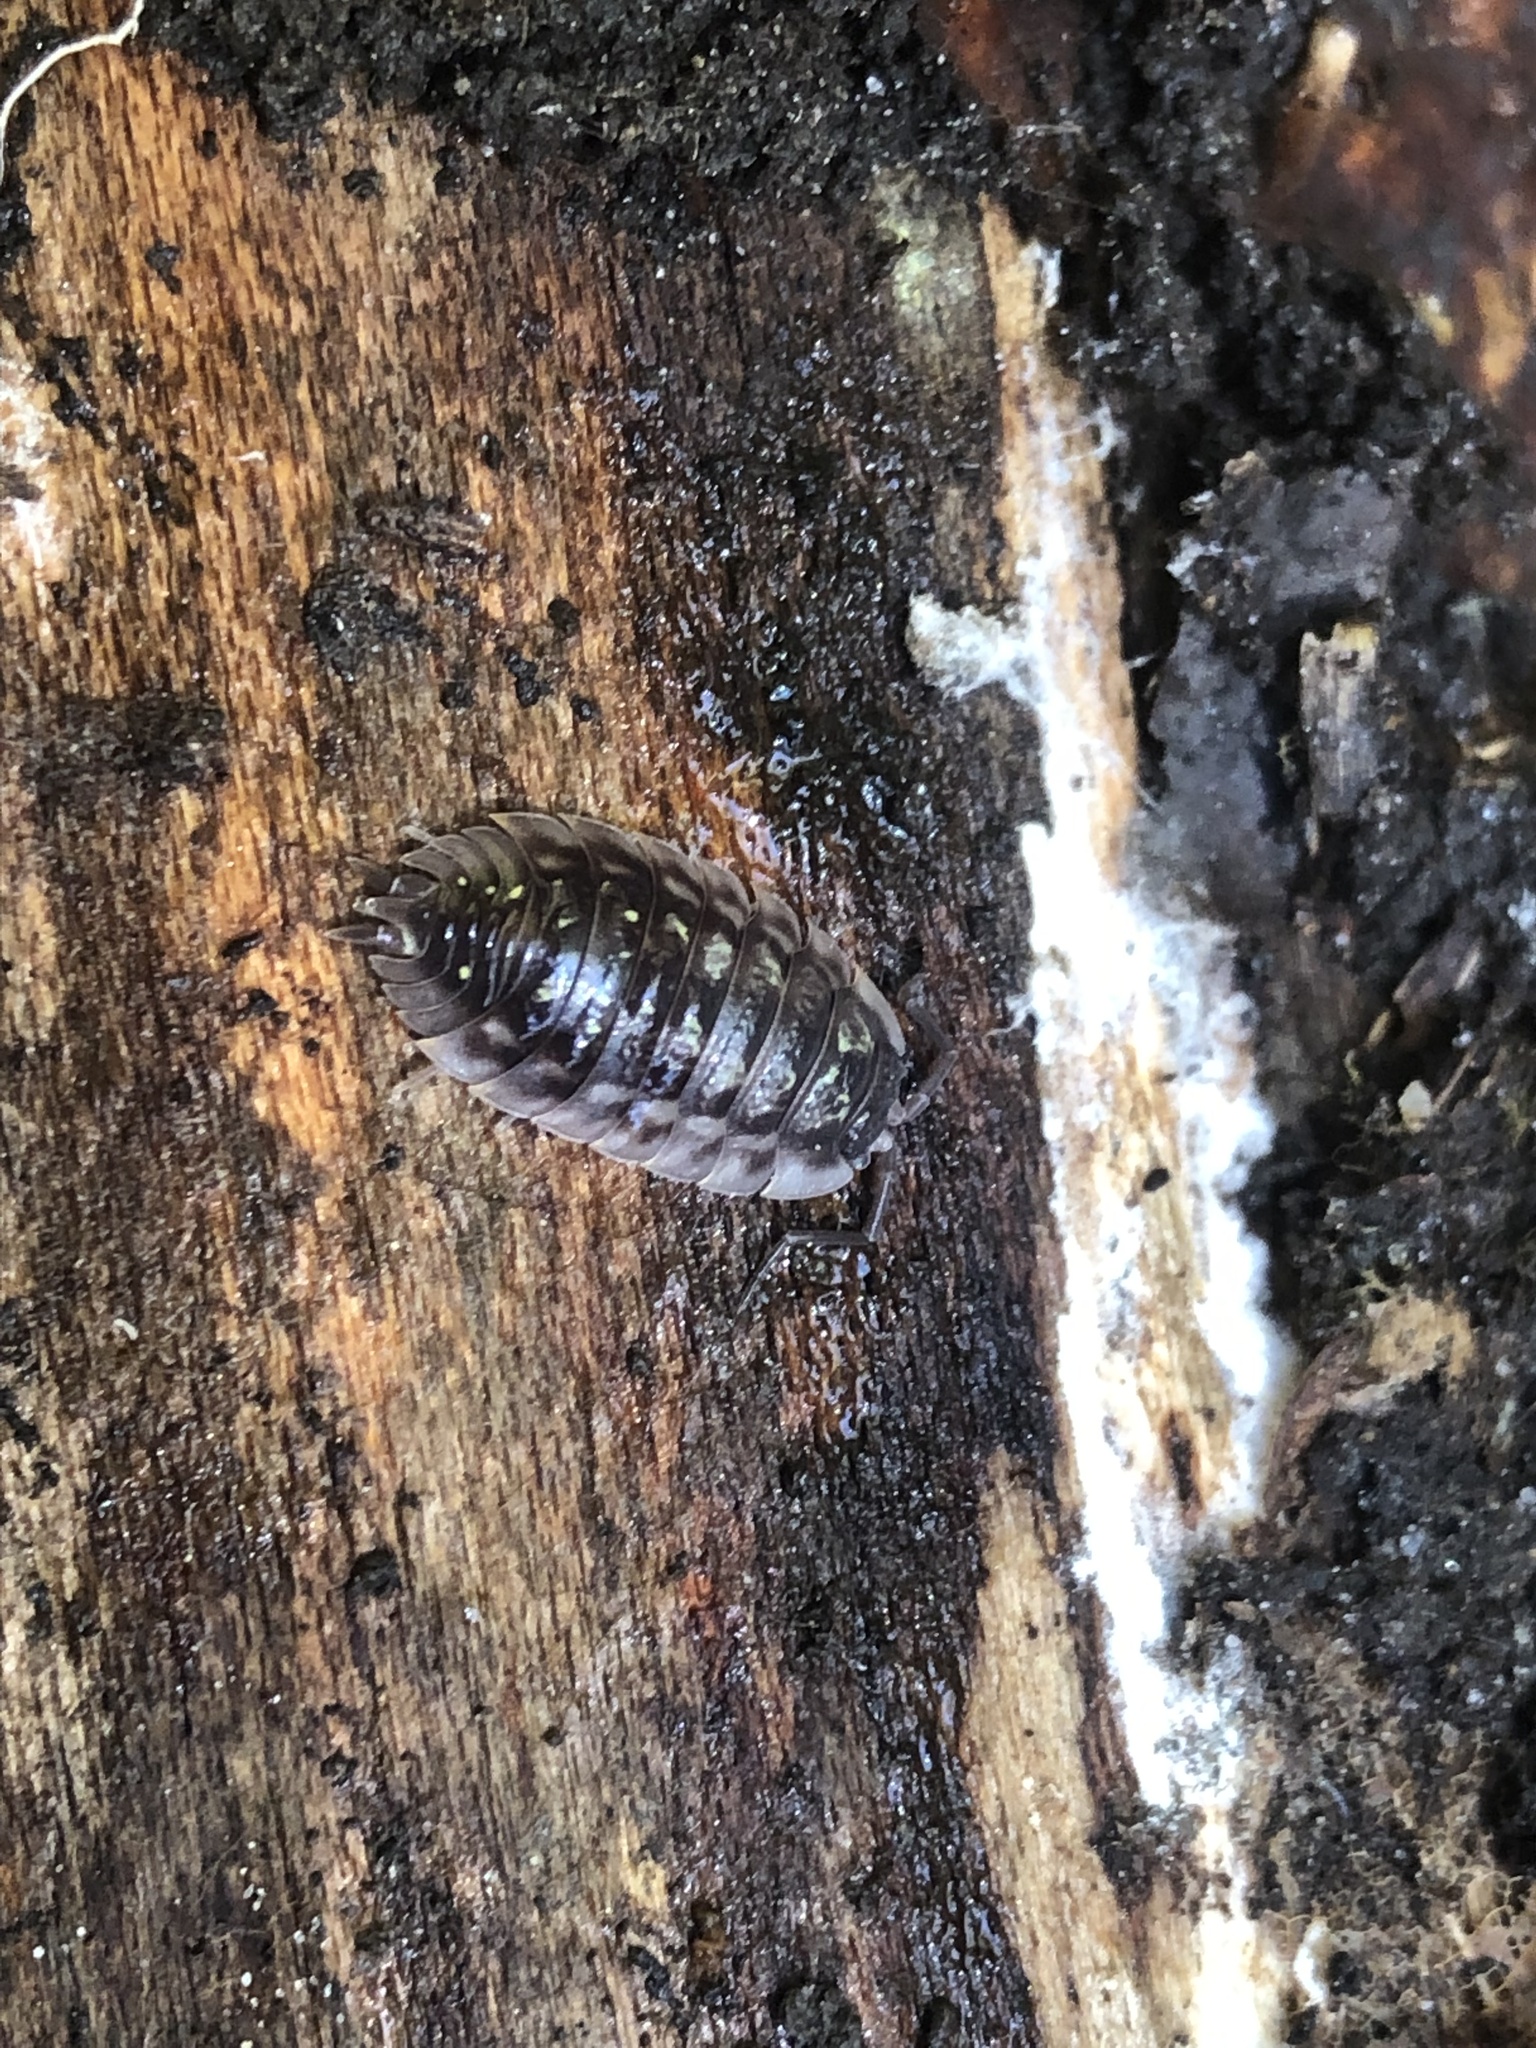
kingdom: Animalia
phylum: Arthropoda
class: Malacostraca
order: Isopoda
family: Oniscidae
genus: Oniscus
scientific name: Oniscus asellus
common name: Common shiny woodlouse
